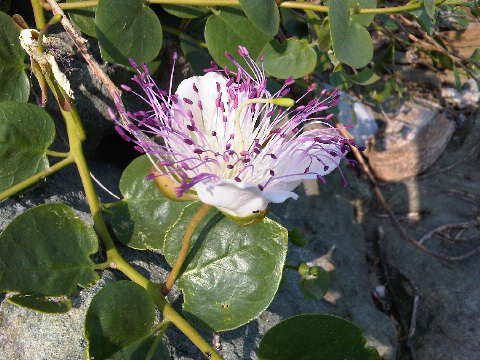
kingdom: Plantae
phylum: Tracheophyta
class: Magnoliopsida
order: Brassicales
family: Capparaceae
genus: Capparis
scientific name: Capparis orientalis
